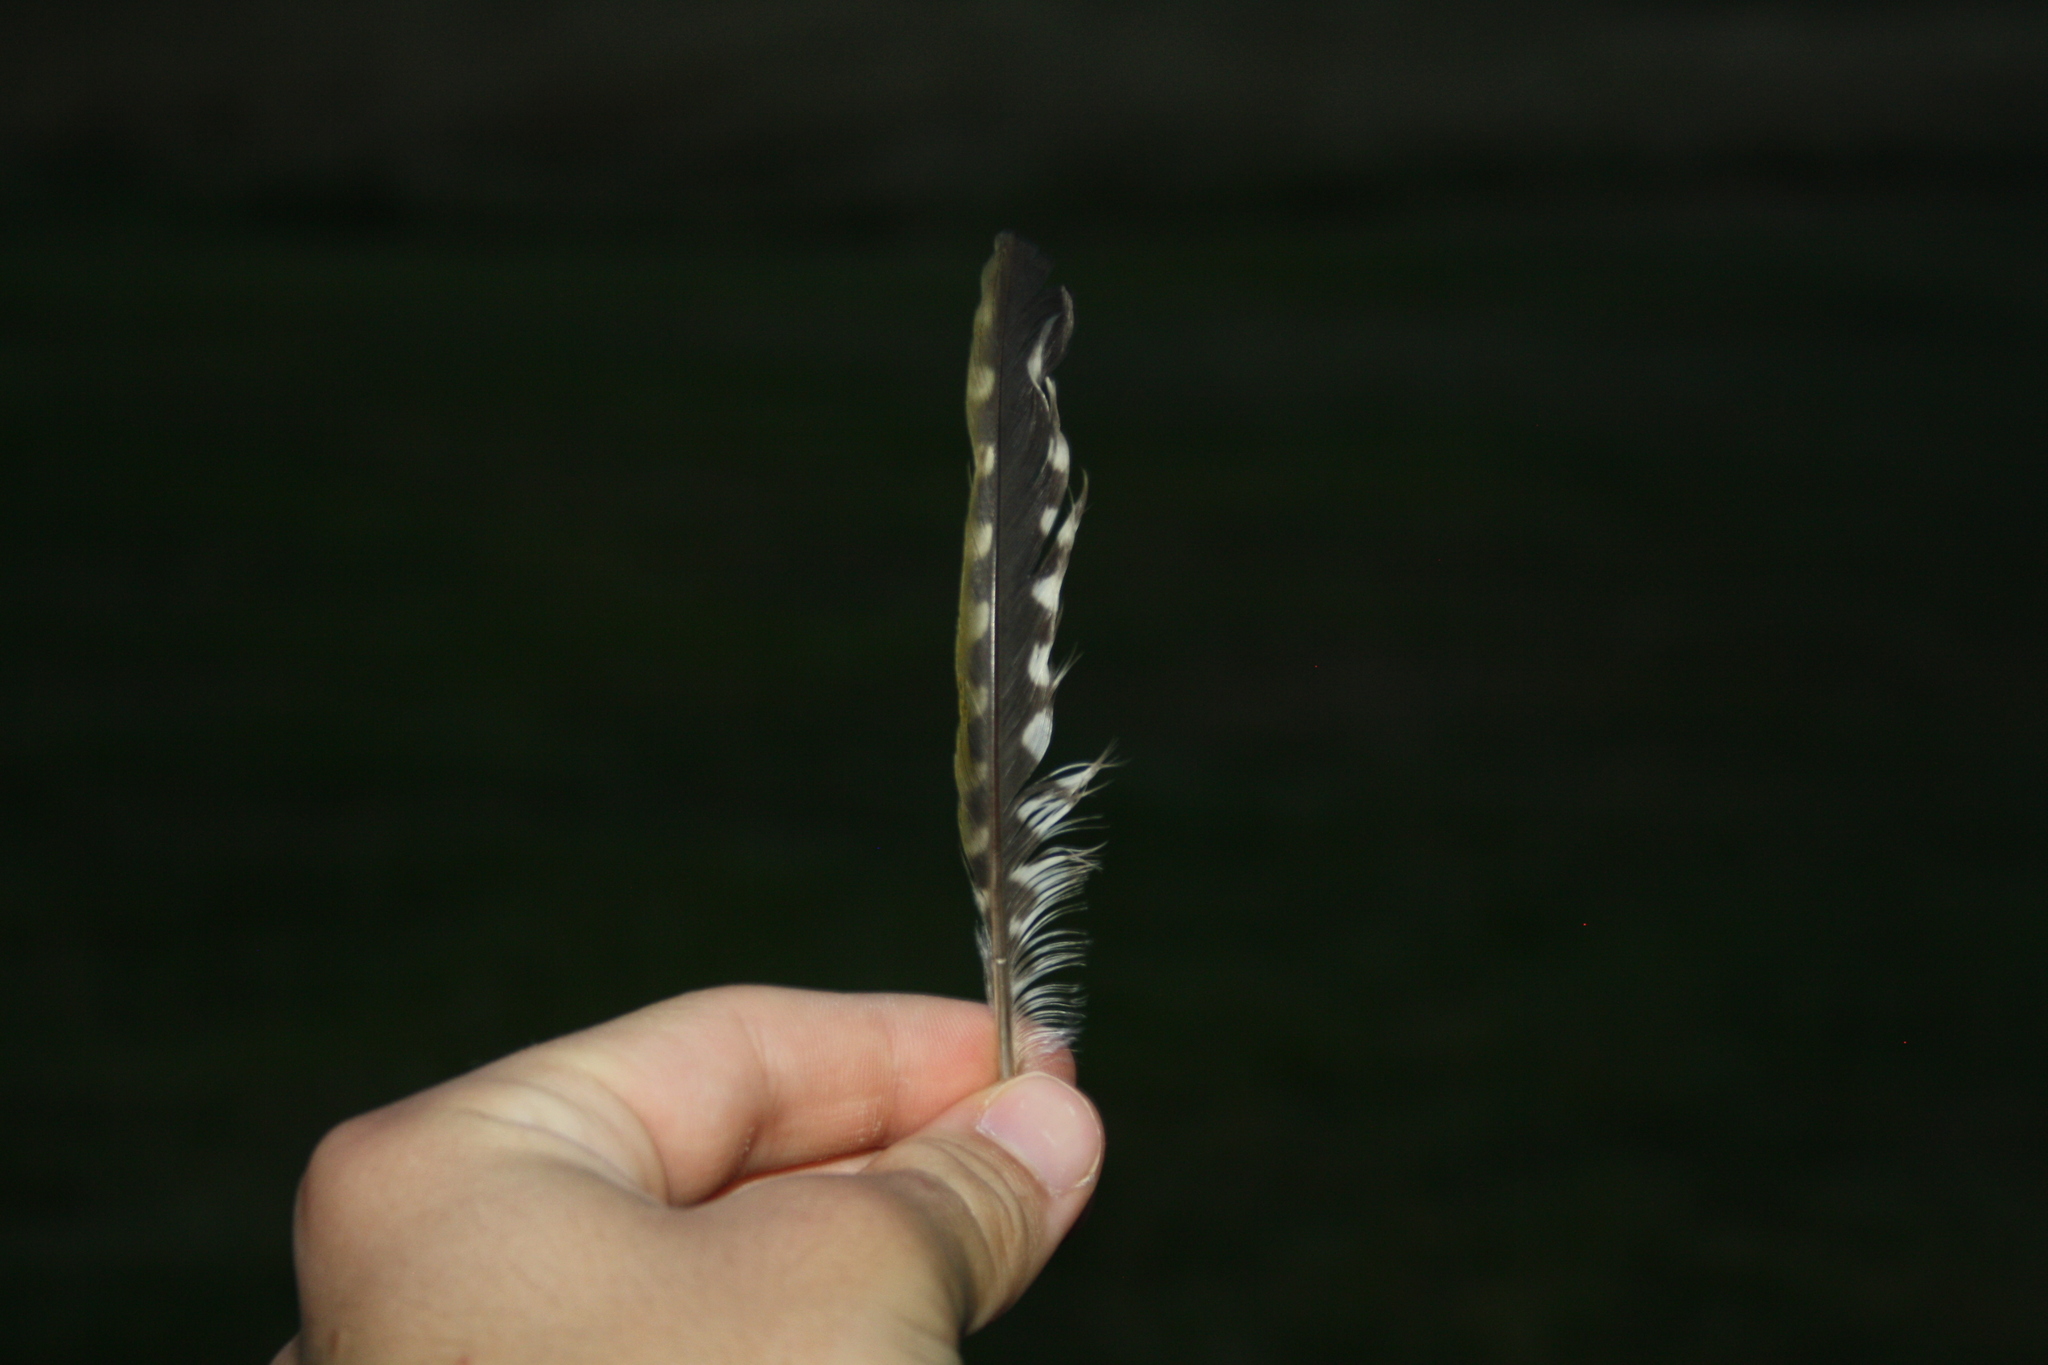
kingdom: Animalia
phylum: Chordata
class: Aves
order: Piciformes
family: Picidae
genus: Picus
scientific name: Picus viridis
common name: European green woodpecker
